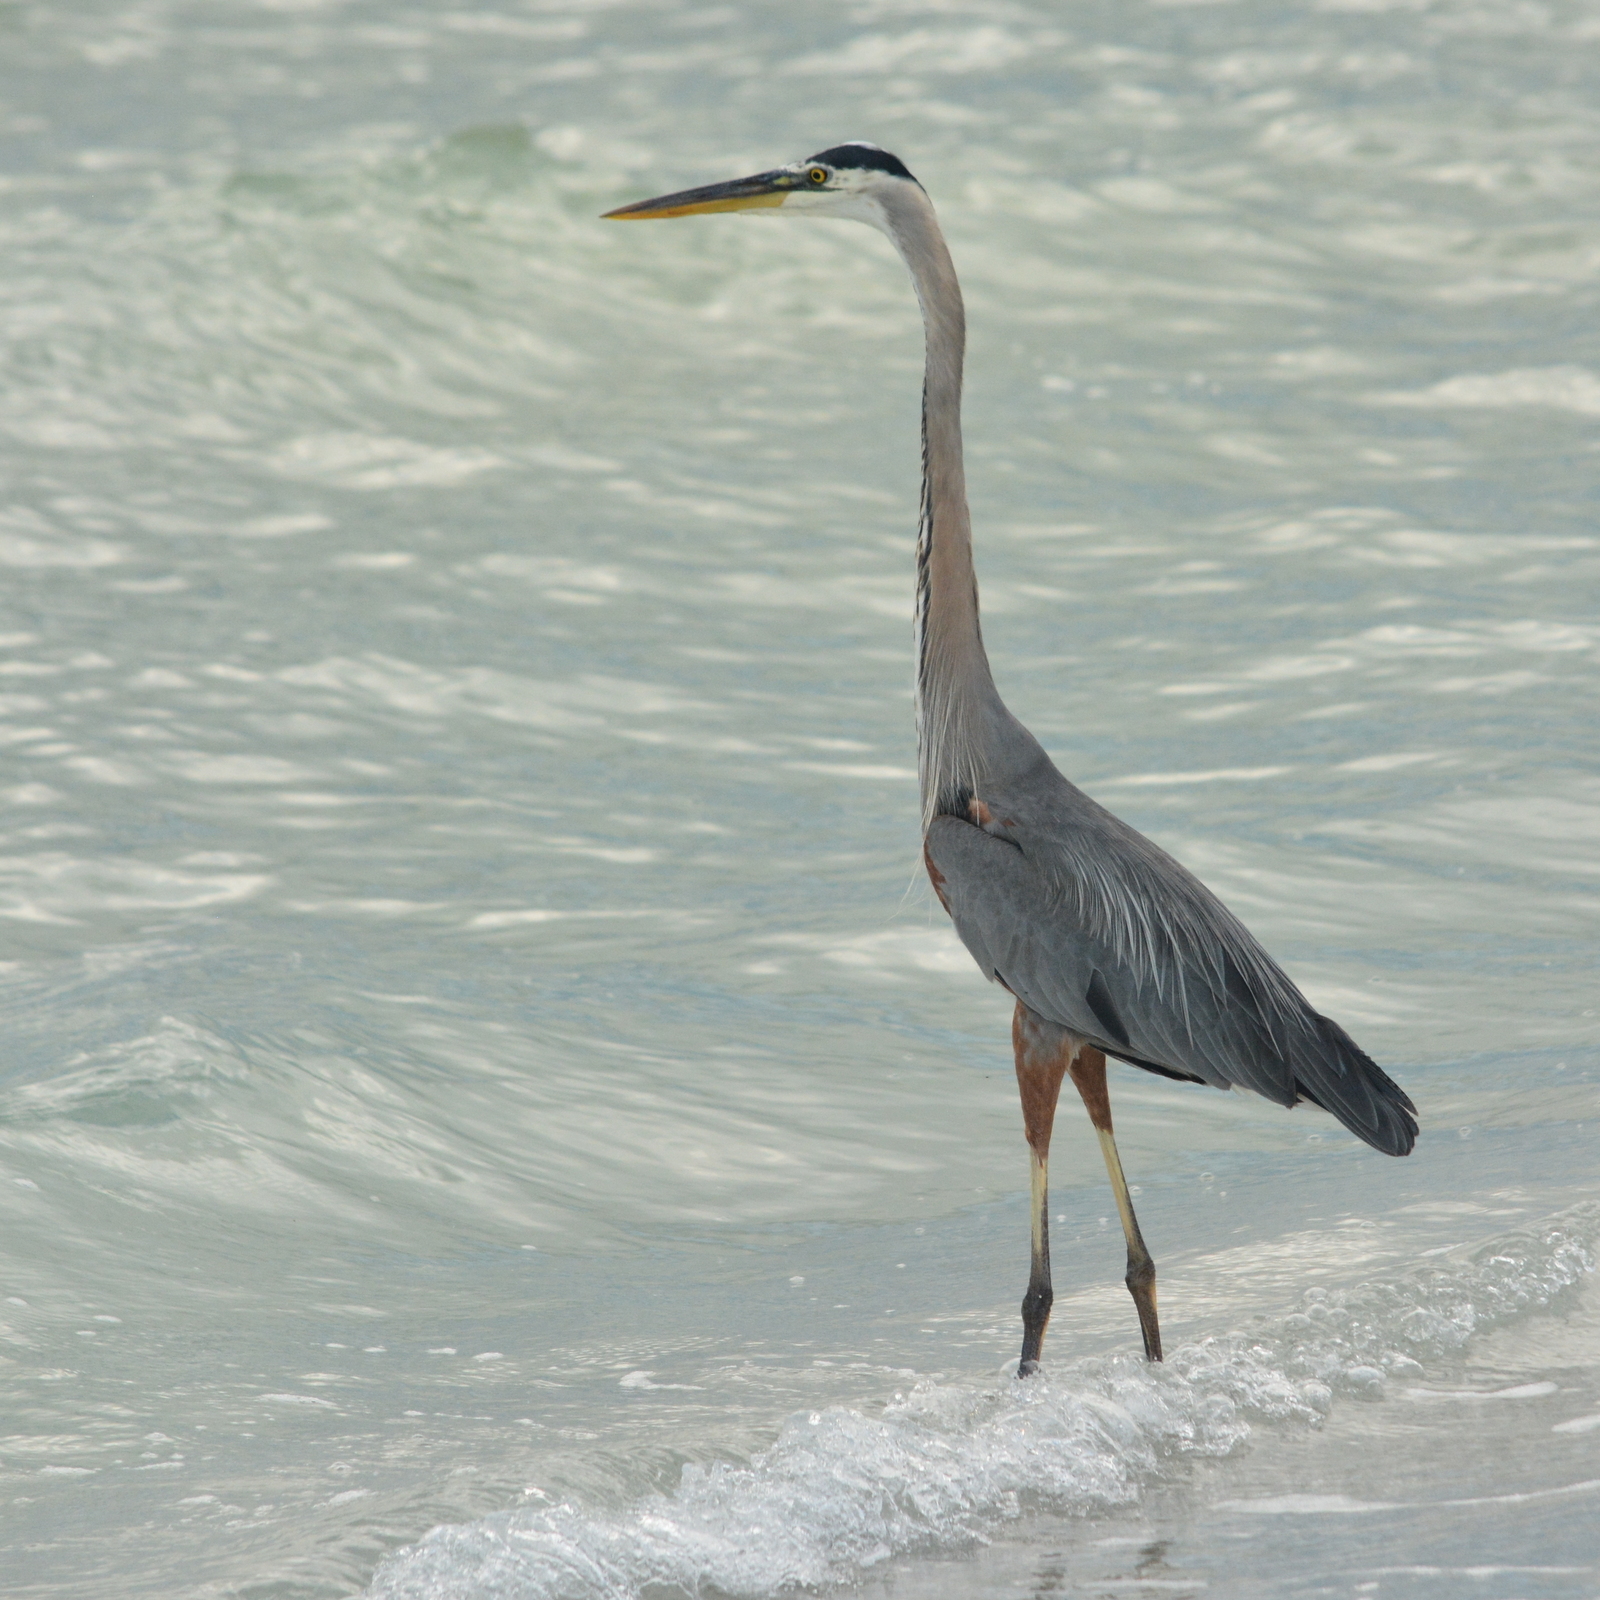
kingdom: Animalia
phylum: Chordata
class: Aves
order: Pelecaniformes
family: Ardeidae
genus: Ardea
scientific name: Ardea herodias
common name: Great blue heron
